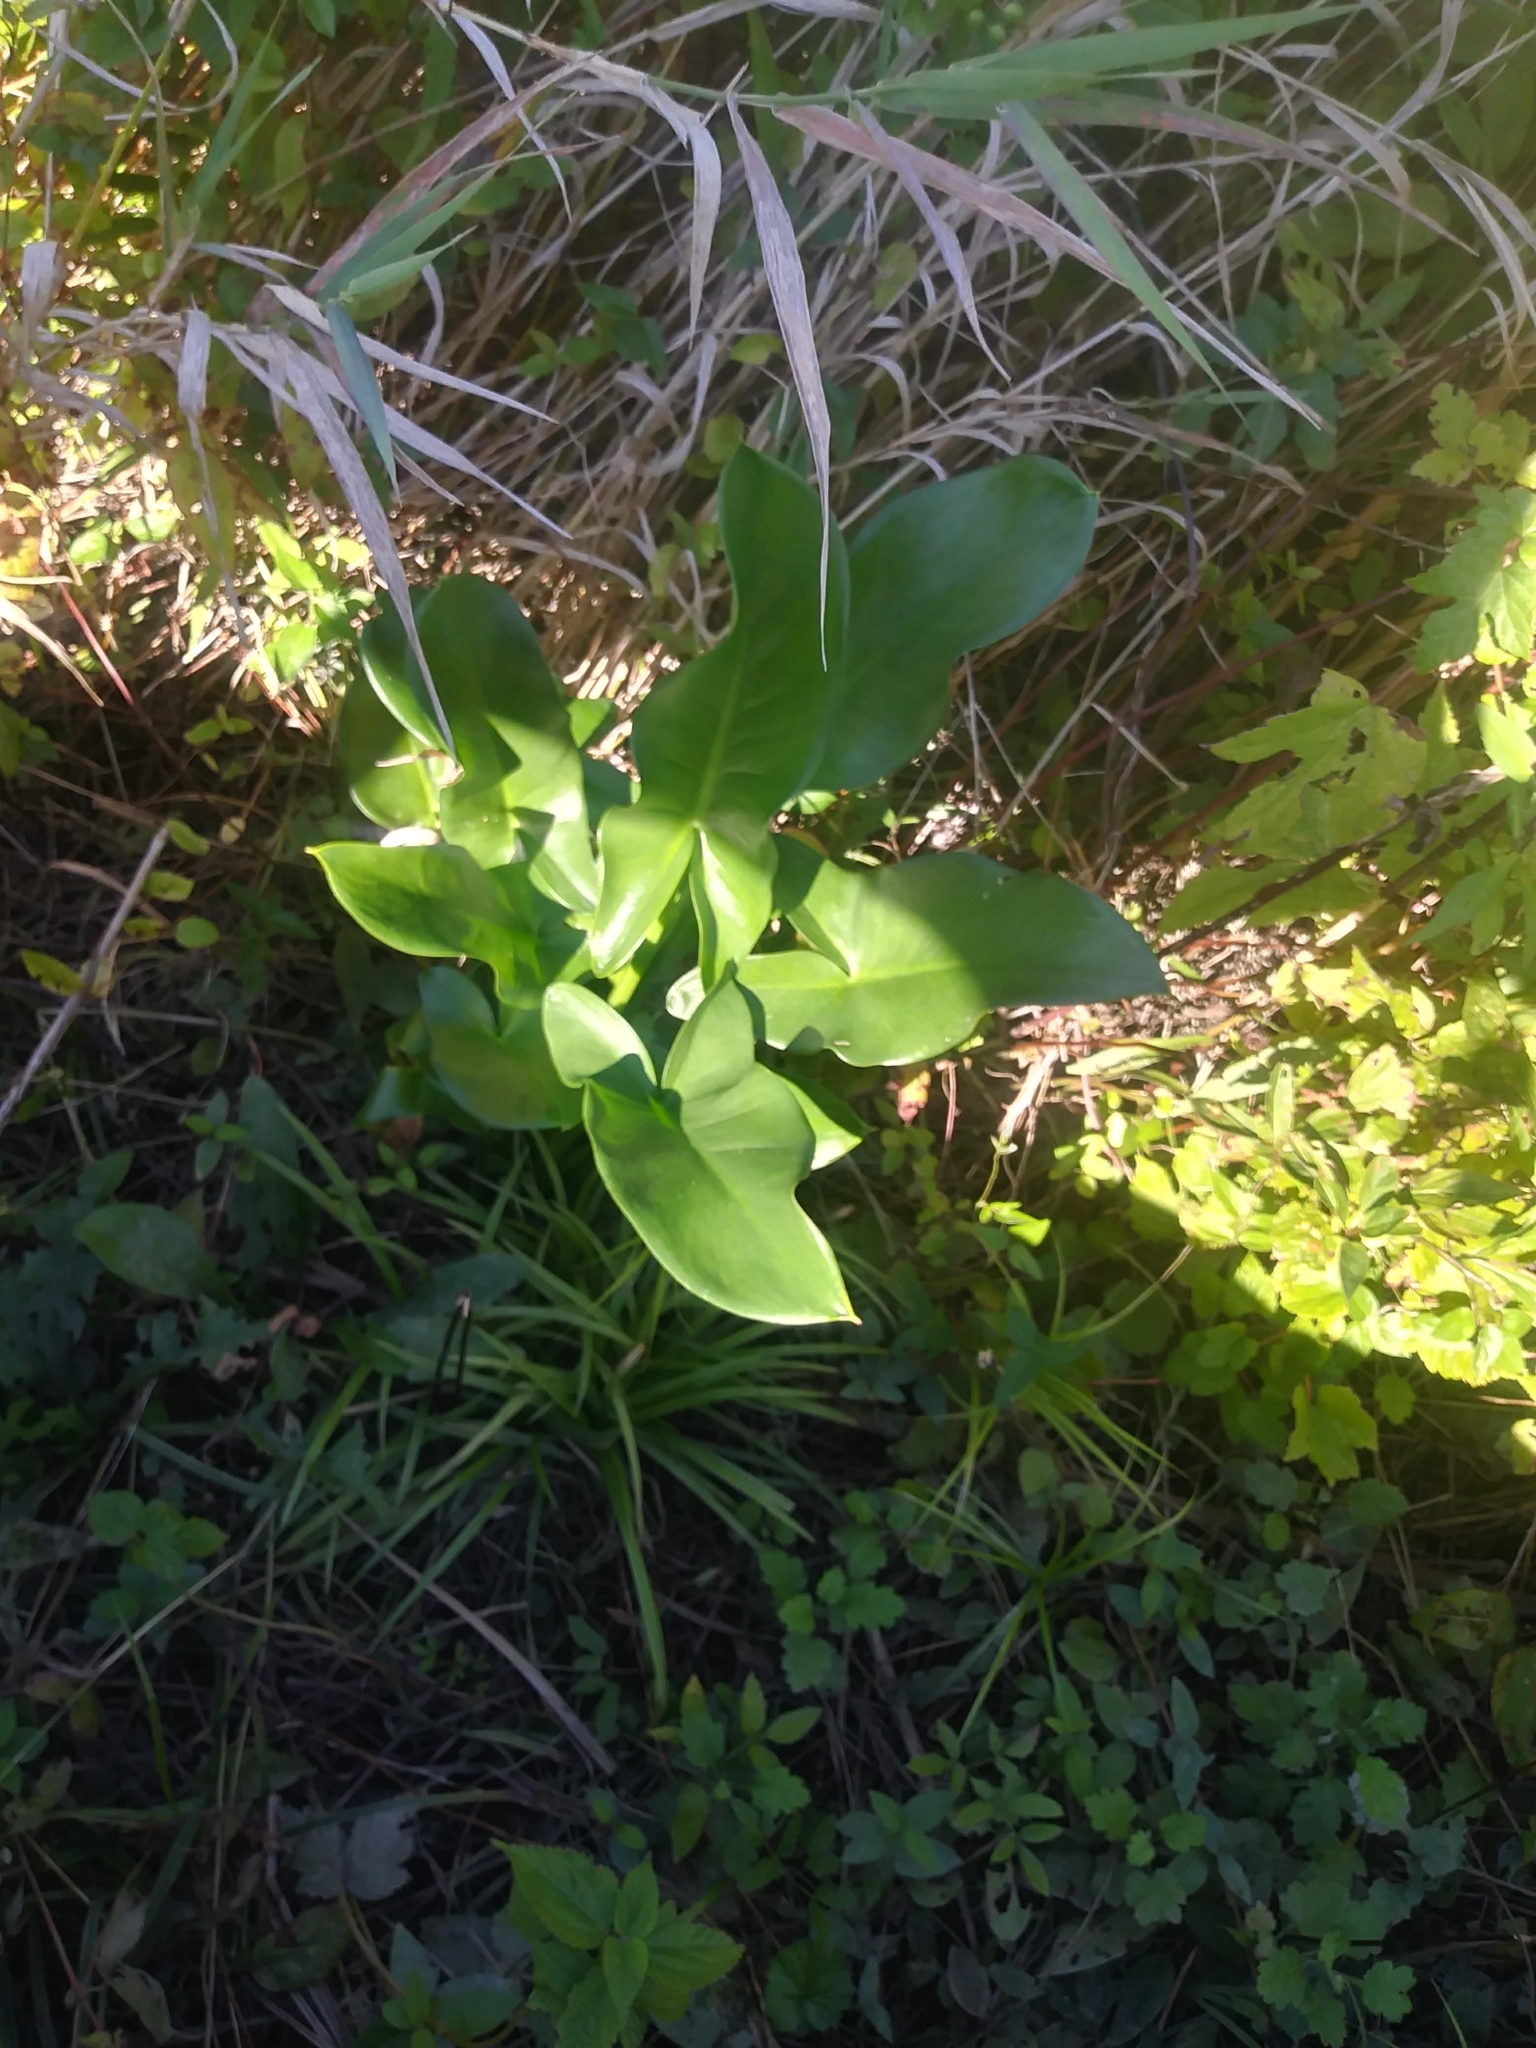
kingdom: Plantae
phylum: Tracheophyta
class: Liliopsida
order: Alismatales
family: Araceae
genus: Peltandra
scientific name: Peltandra virginica
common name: Arrow arum
